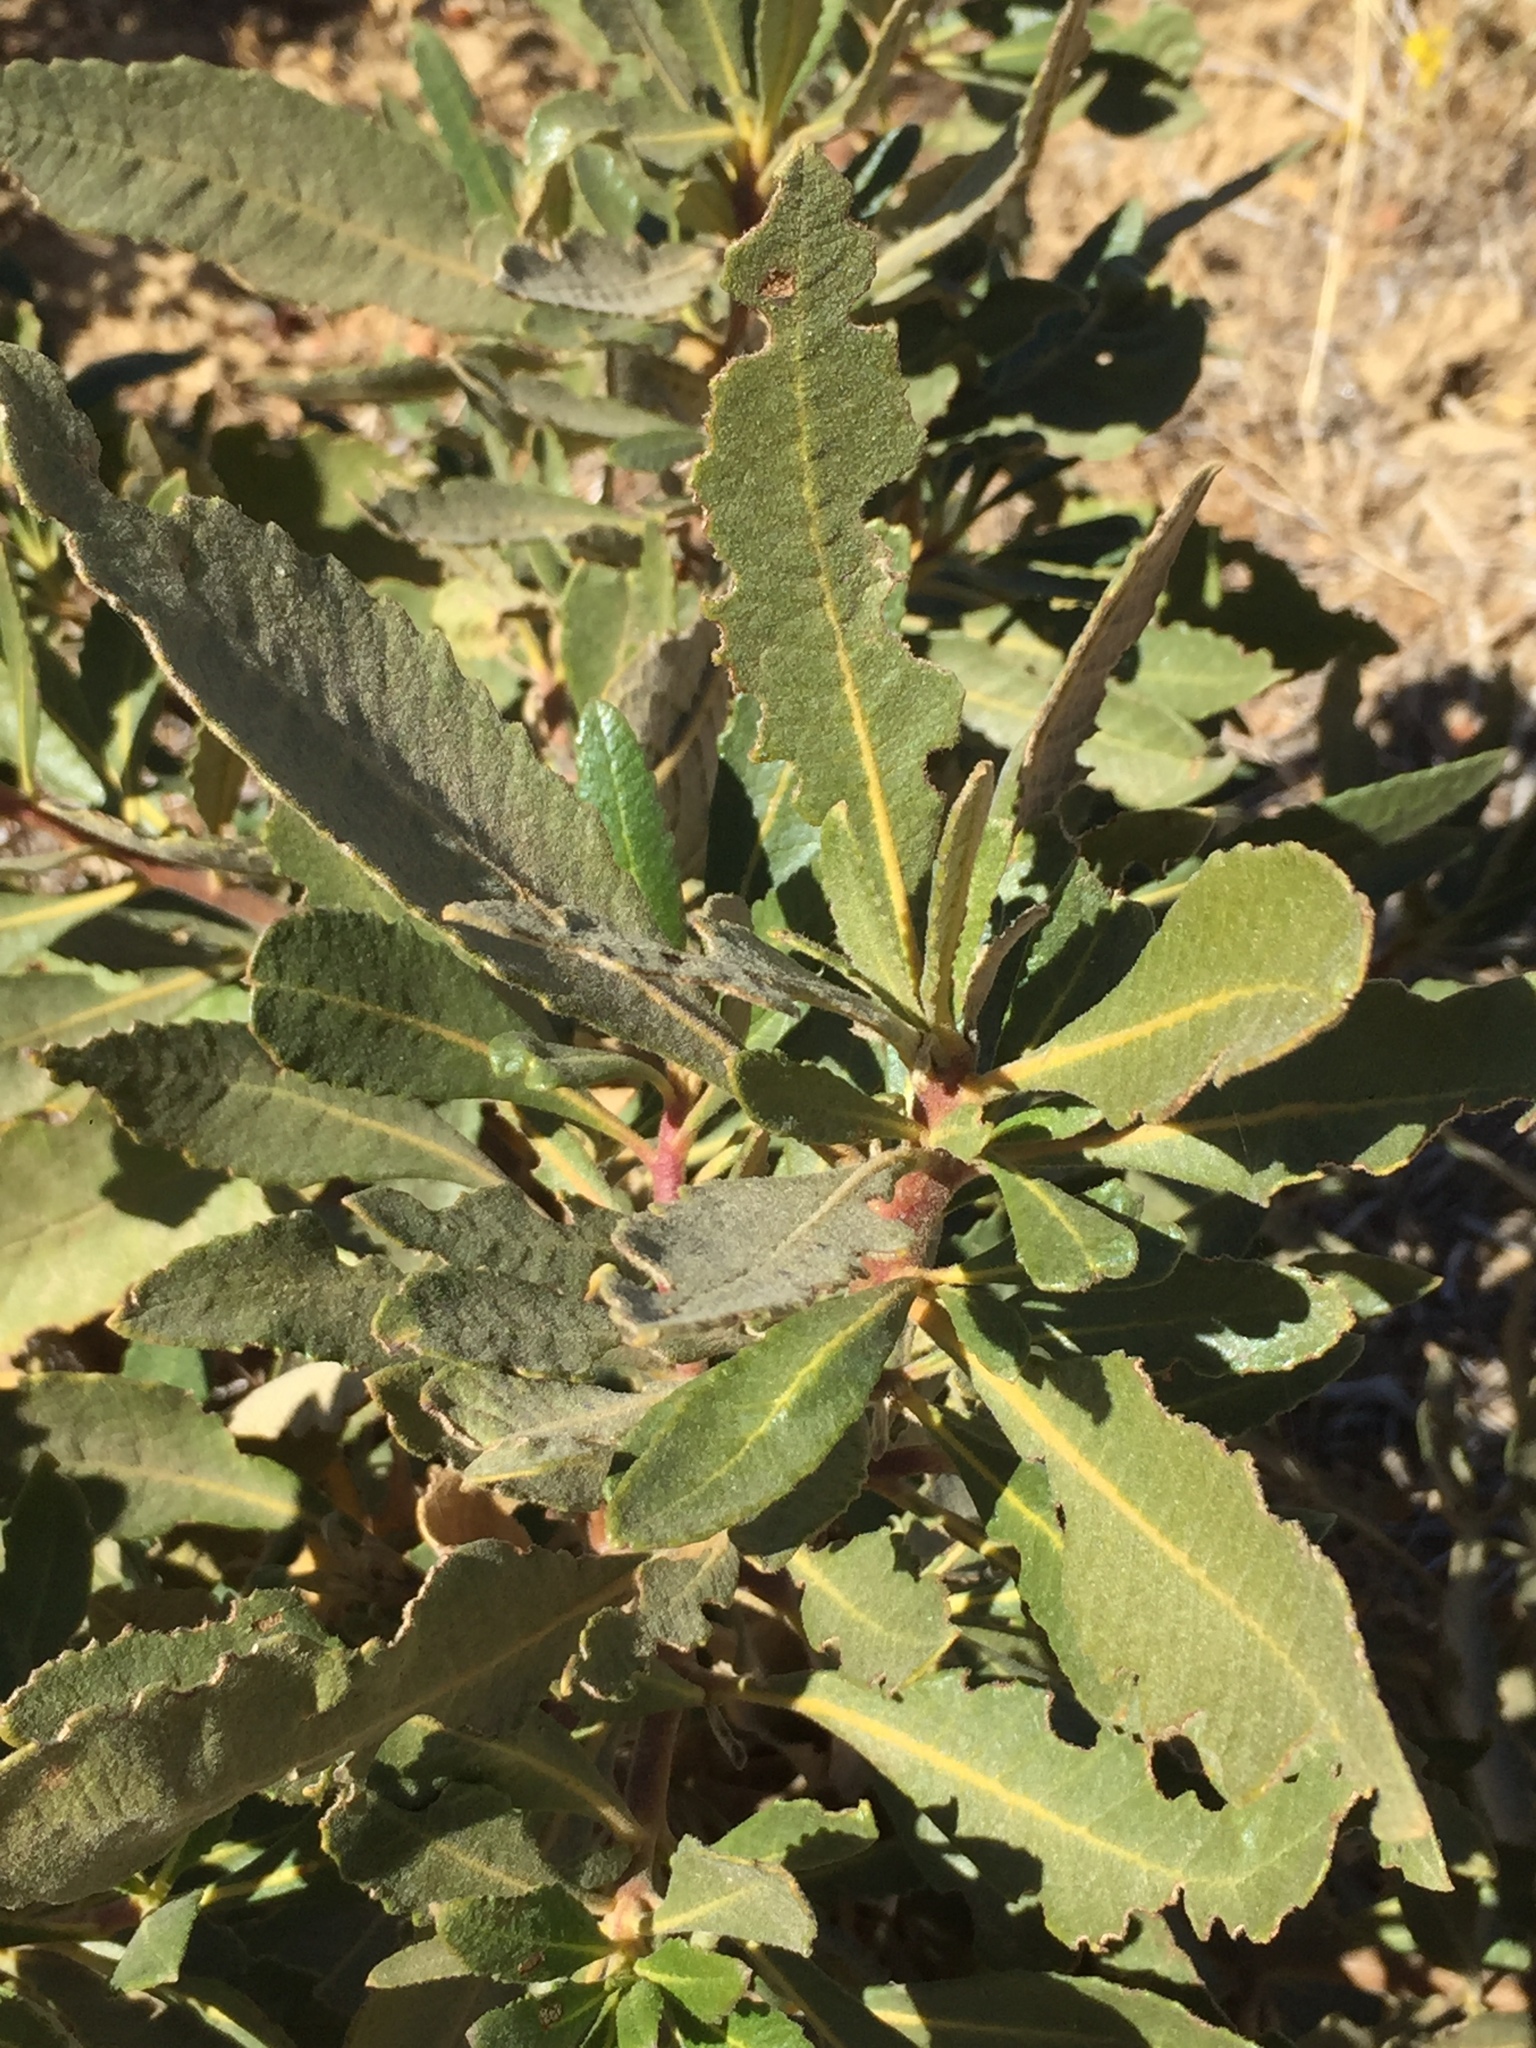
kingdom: Plantae
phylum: Tracheophyta
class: Magnoliopsida
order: Boraginales
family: Namaceae
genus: Eriodictyon
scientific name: Eriodictyon crassifolium
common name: Thick-leaf yerba-santa
